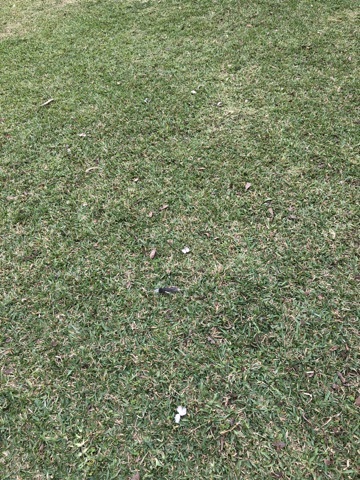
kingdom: Animalia
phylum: Chordata
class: Aves
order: Columbiformes
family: Columbidae
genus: Zenaida
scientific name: Zenaida meloda
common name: West peruvian dove
